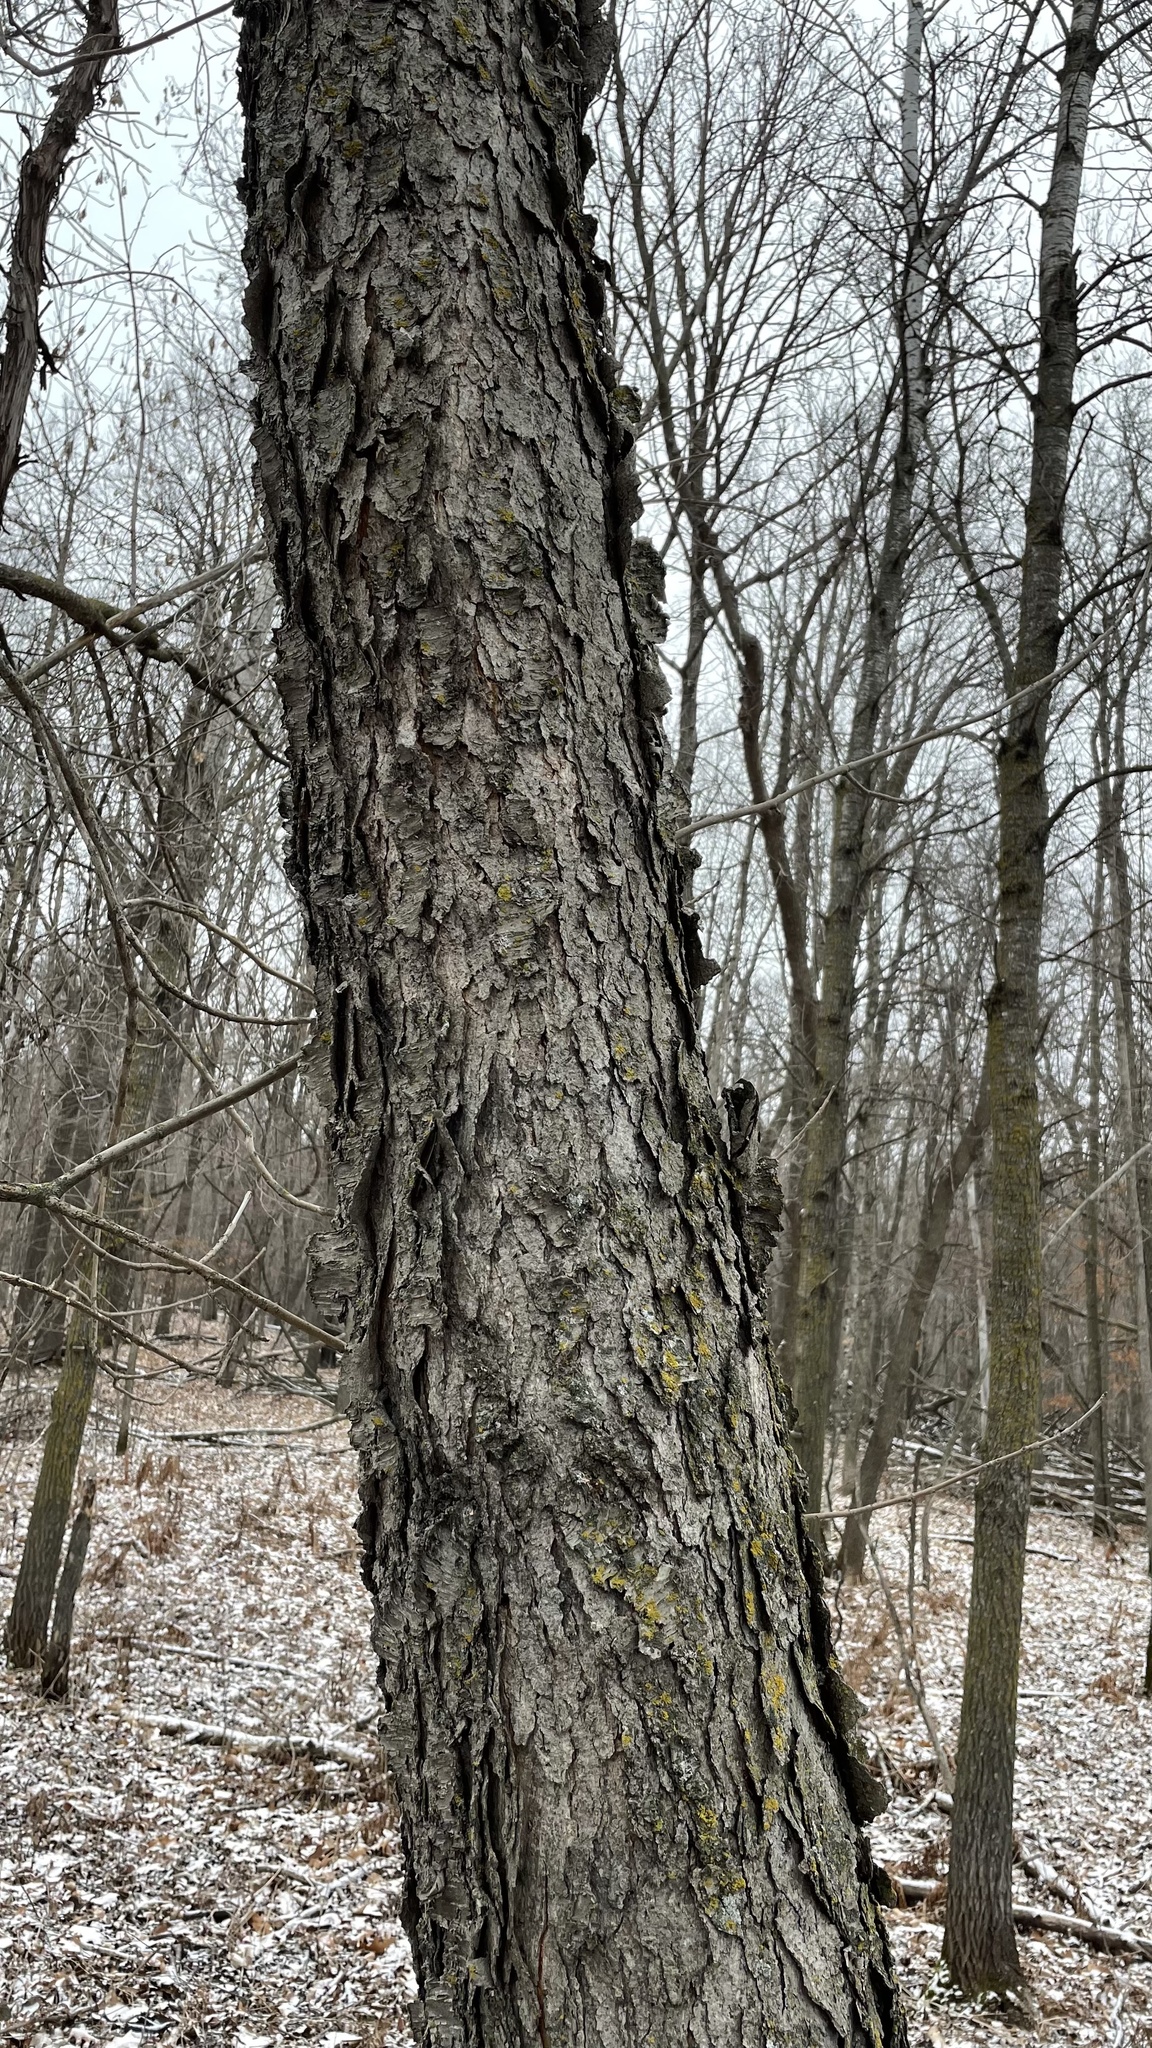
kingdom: Plantae
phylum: Tracheophyta
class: Magnoliopsida
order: Rosales
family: Rosaceae
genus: Prunus
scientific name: Prunus serotina
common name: Black cherry
